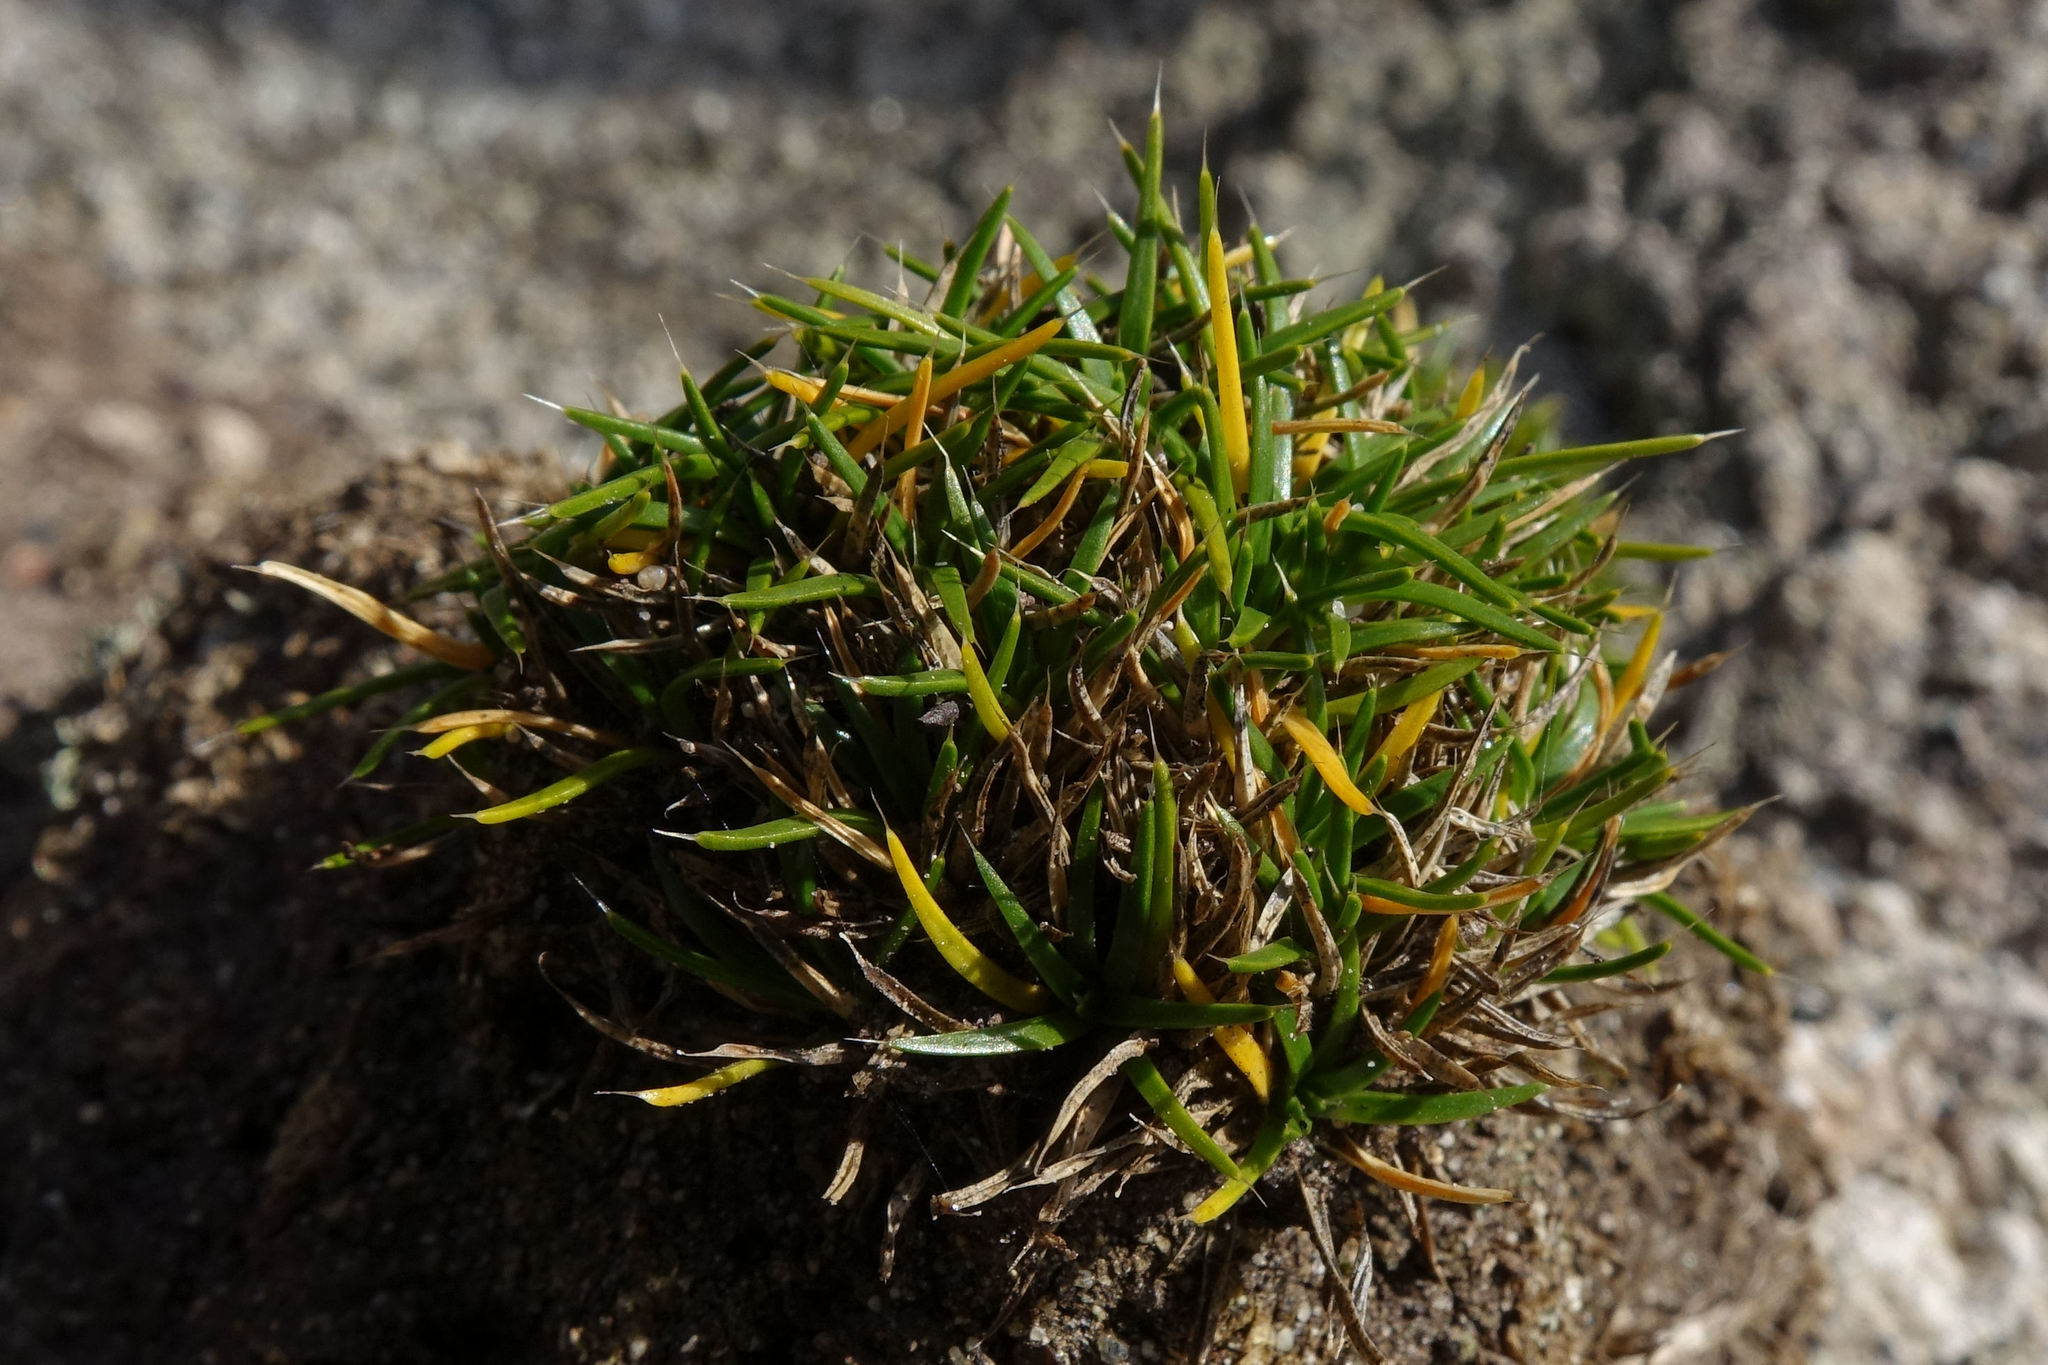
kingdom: Plantae
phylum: Tracheophyta
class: Magnoliopsida
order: Caryophyllales
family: Caryophyllaceae
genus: Colobanthus
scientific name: Colobanthus muelleri
